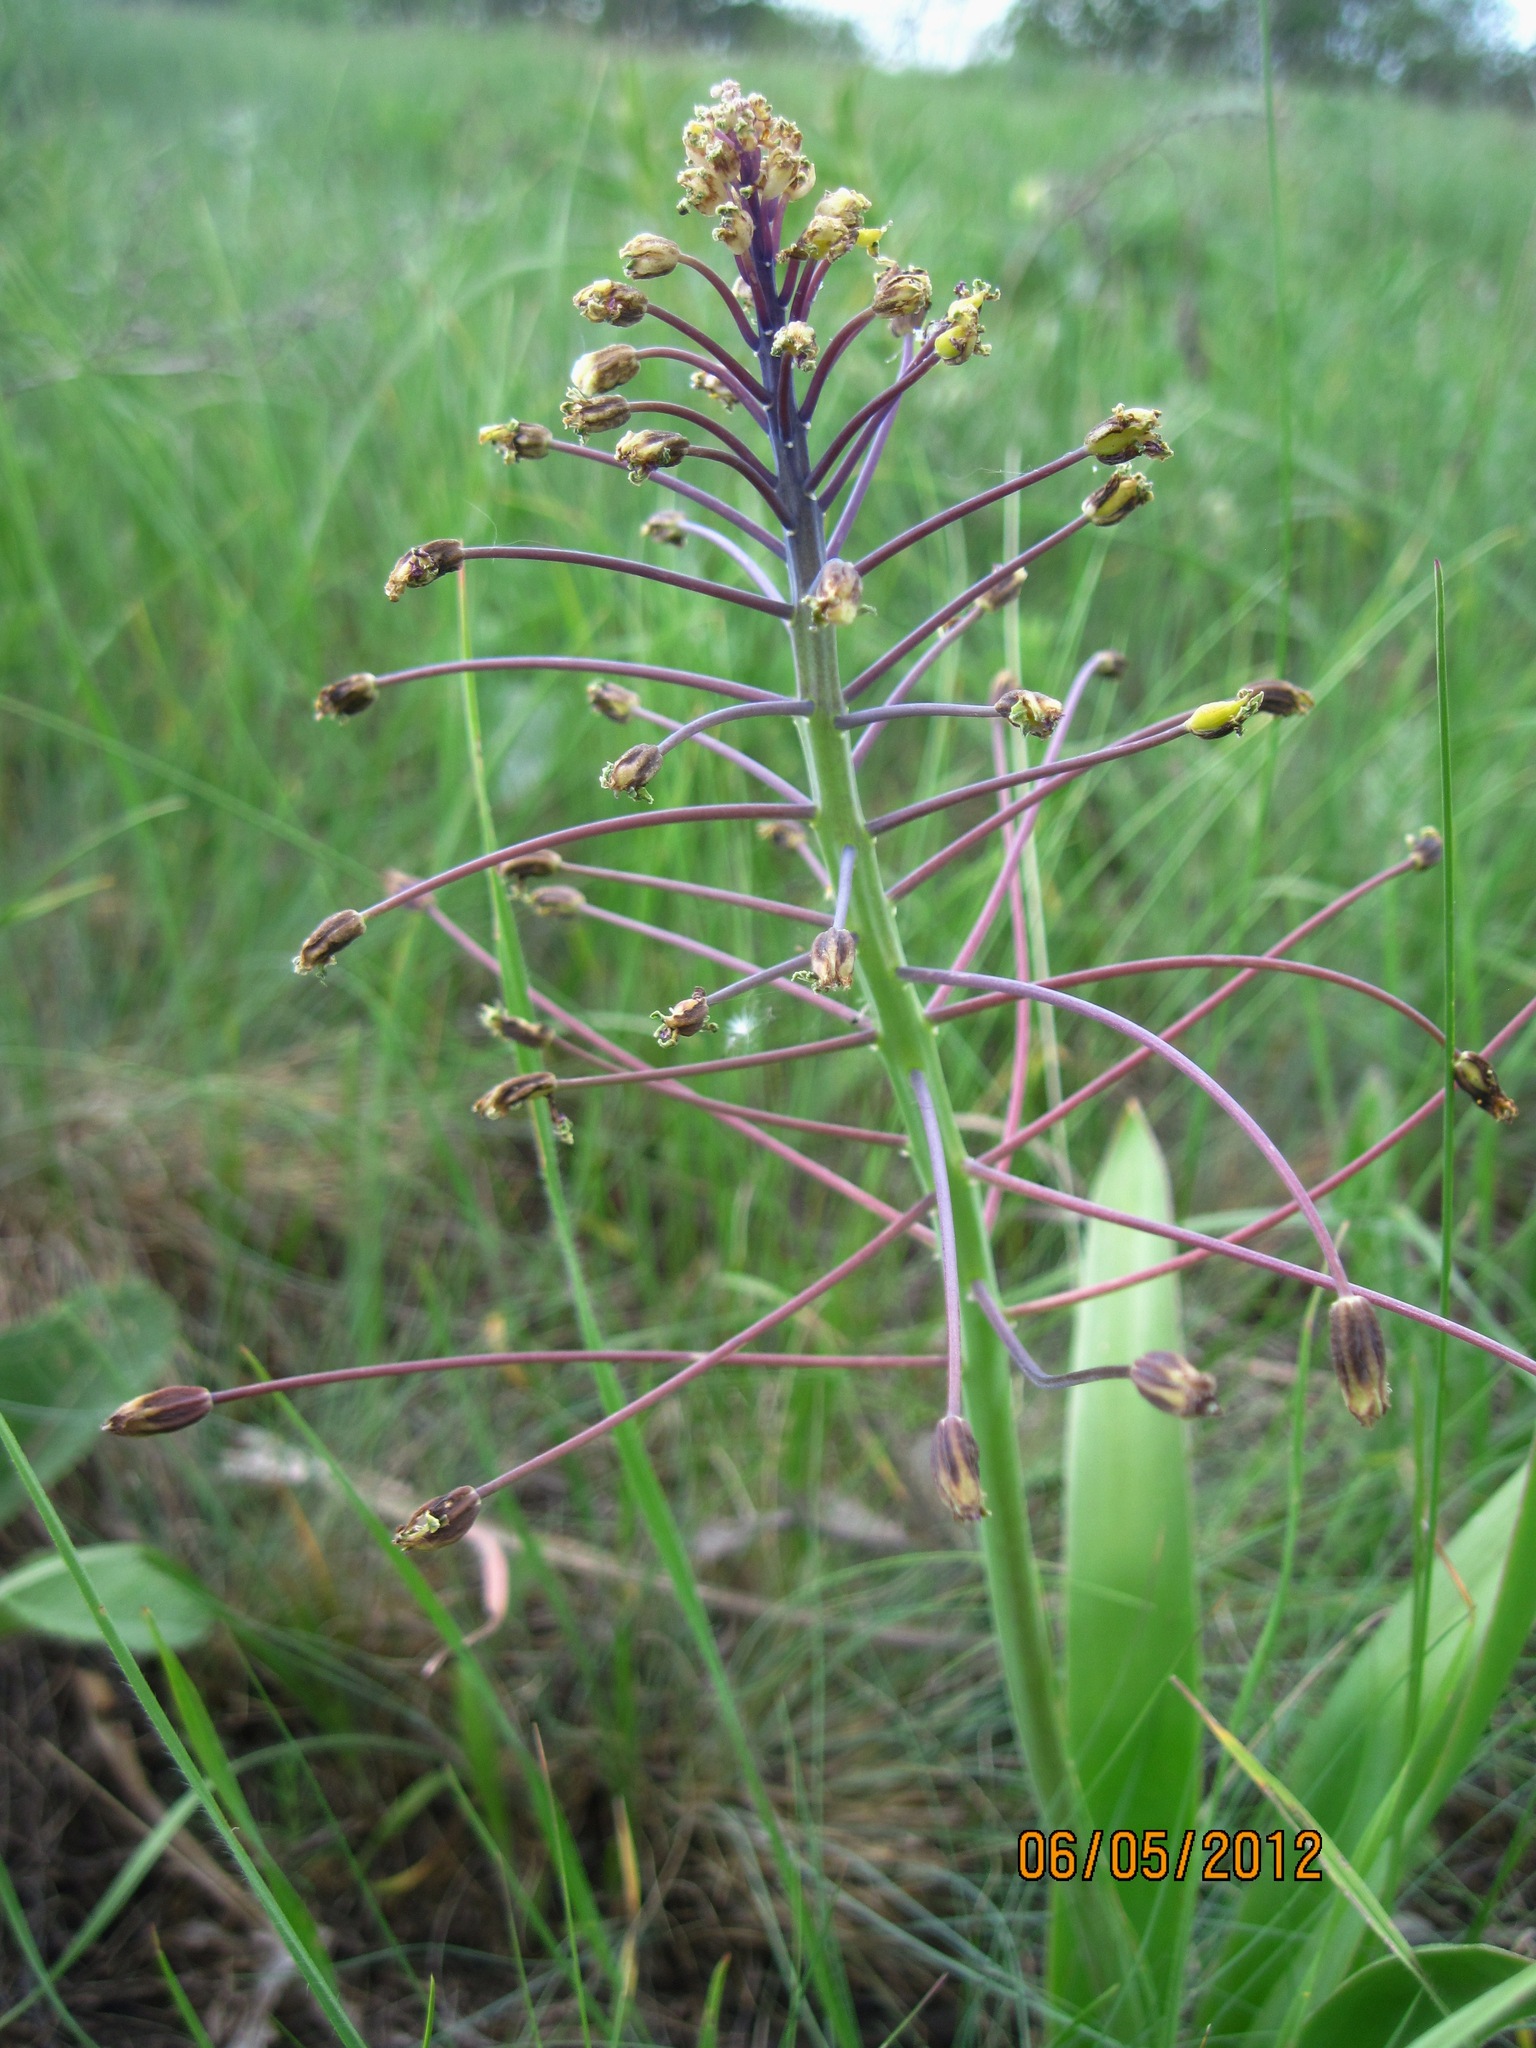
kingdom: Plantae
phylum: Tracheophyta
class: Liliopsida
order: Asparagales
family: Asparagaceae
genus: Bellevalia
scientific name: Bellevalia speciosa
